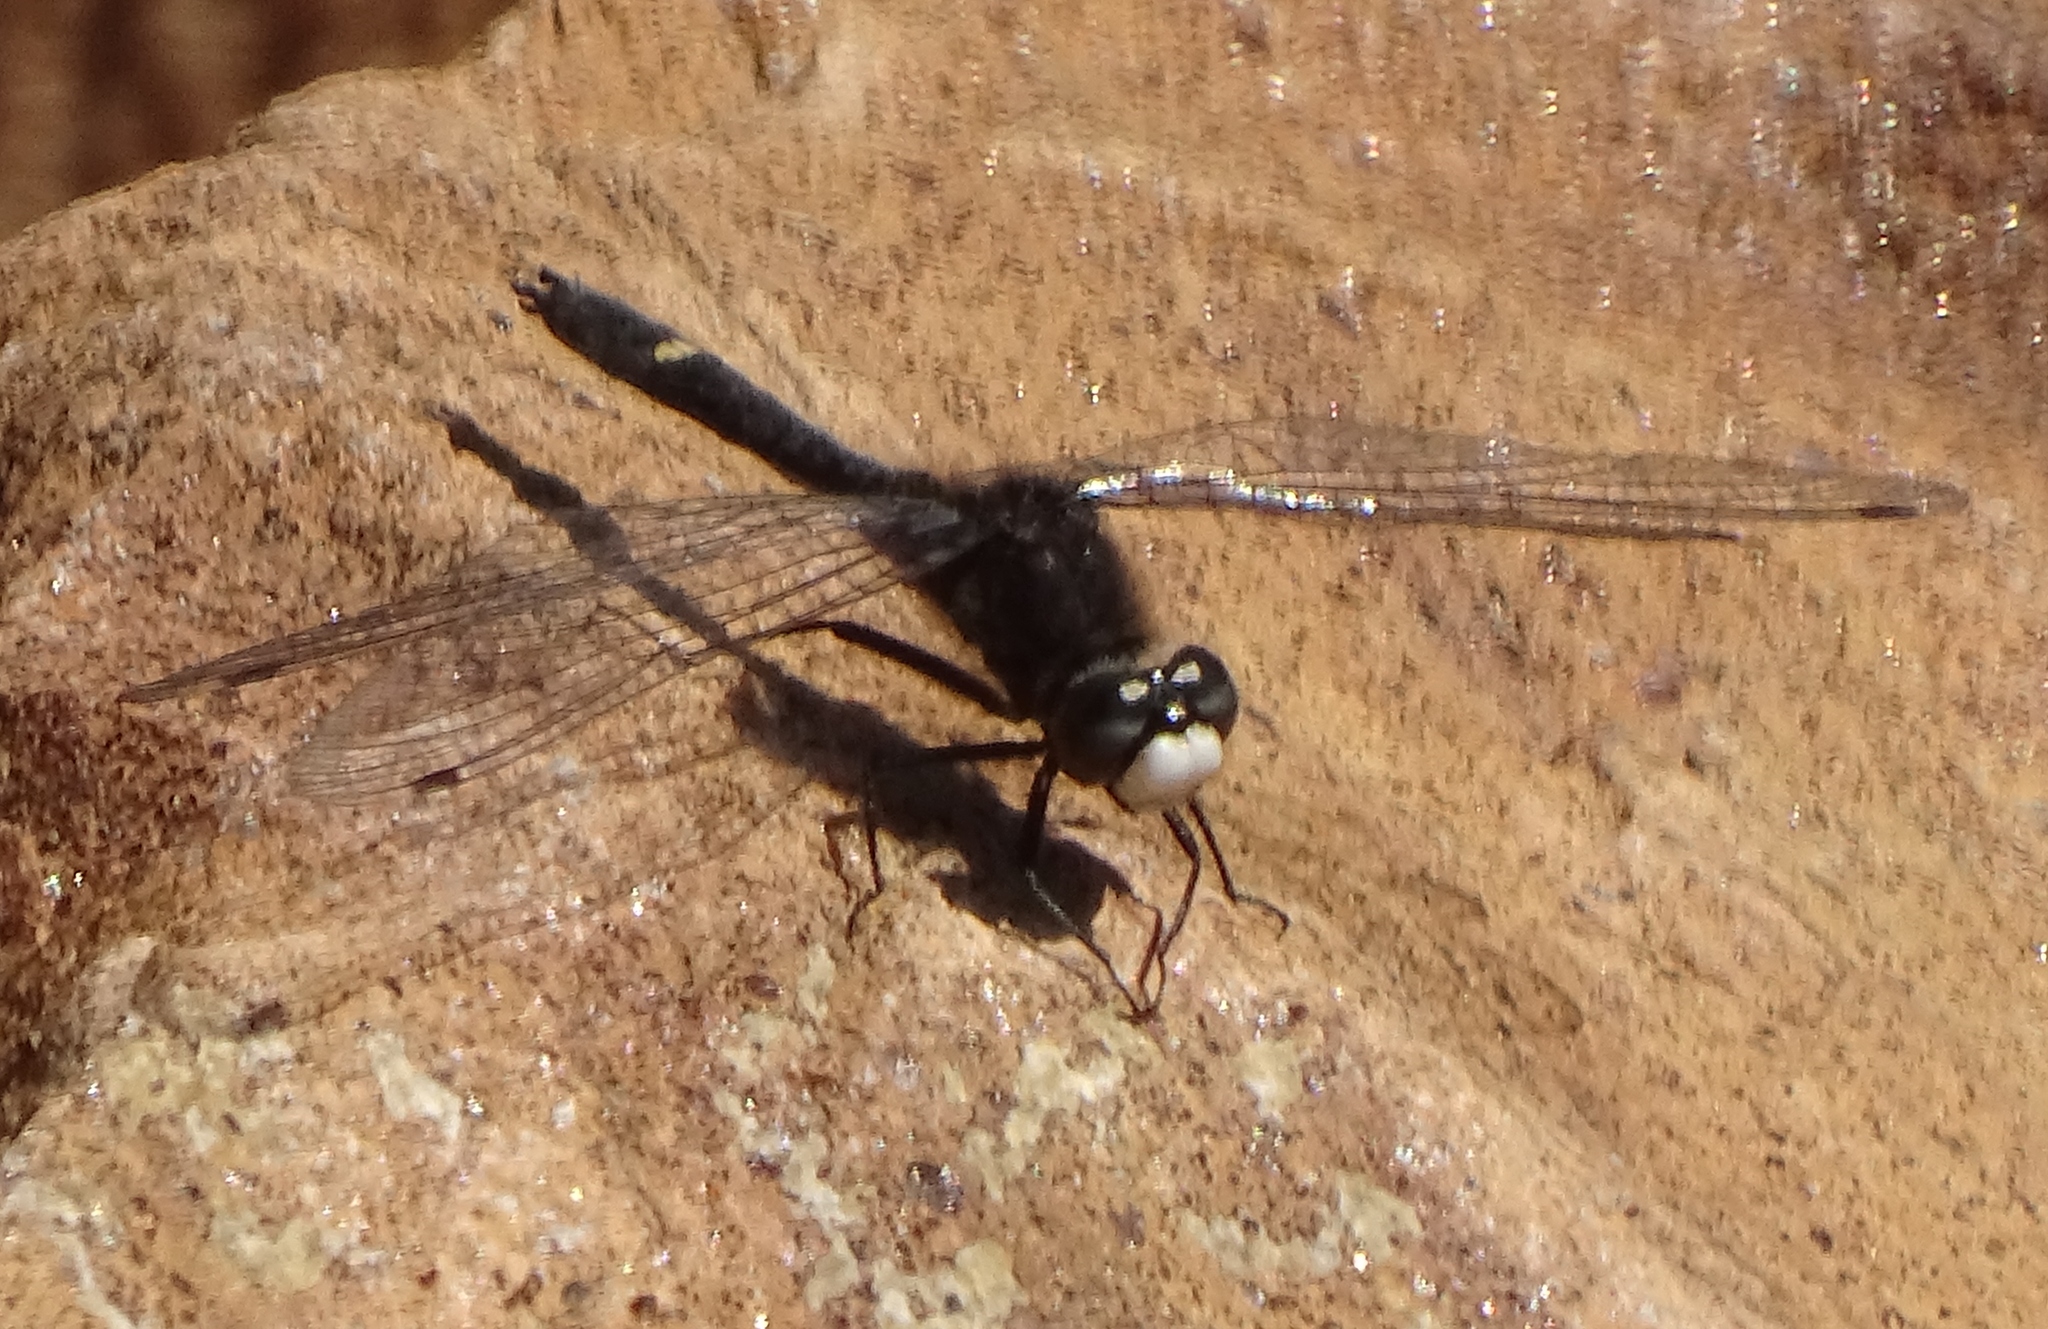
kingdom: Animalia
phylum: Arthropoda
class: Insecta
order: Odonata
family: Libellulidae
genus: Leucorrhinia
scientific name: Leucorrhinia intacta
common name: Dot-tailed whiteface
